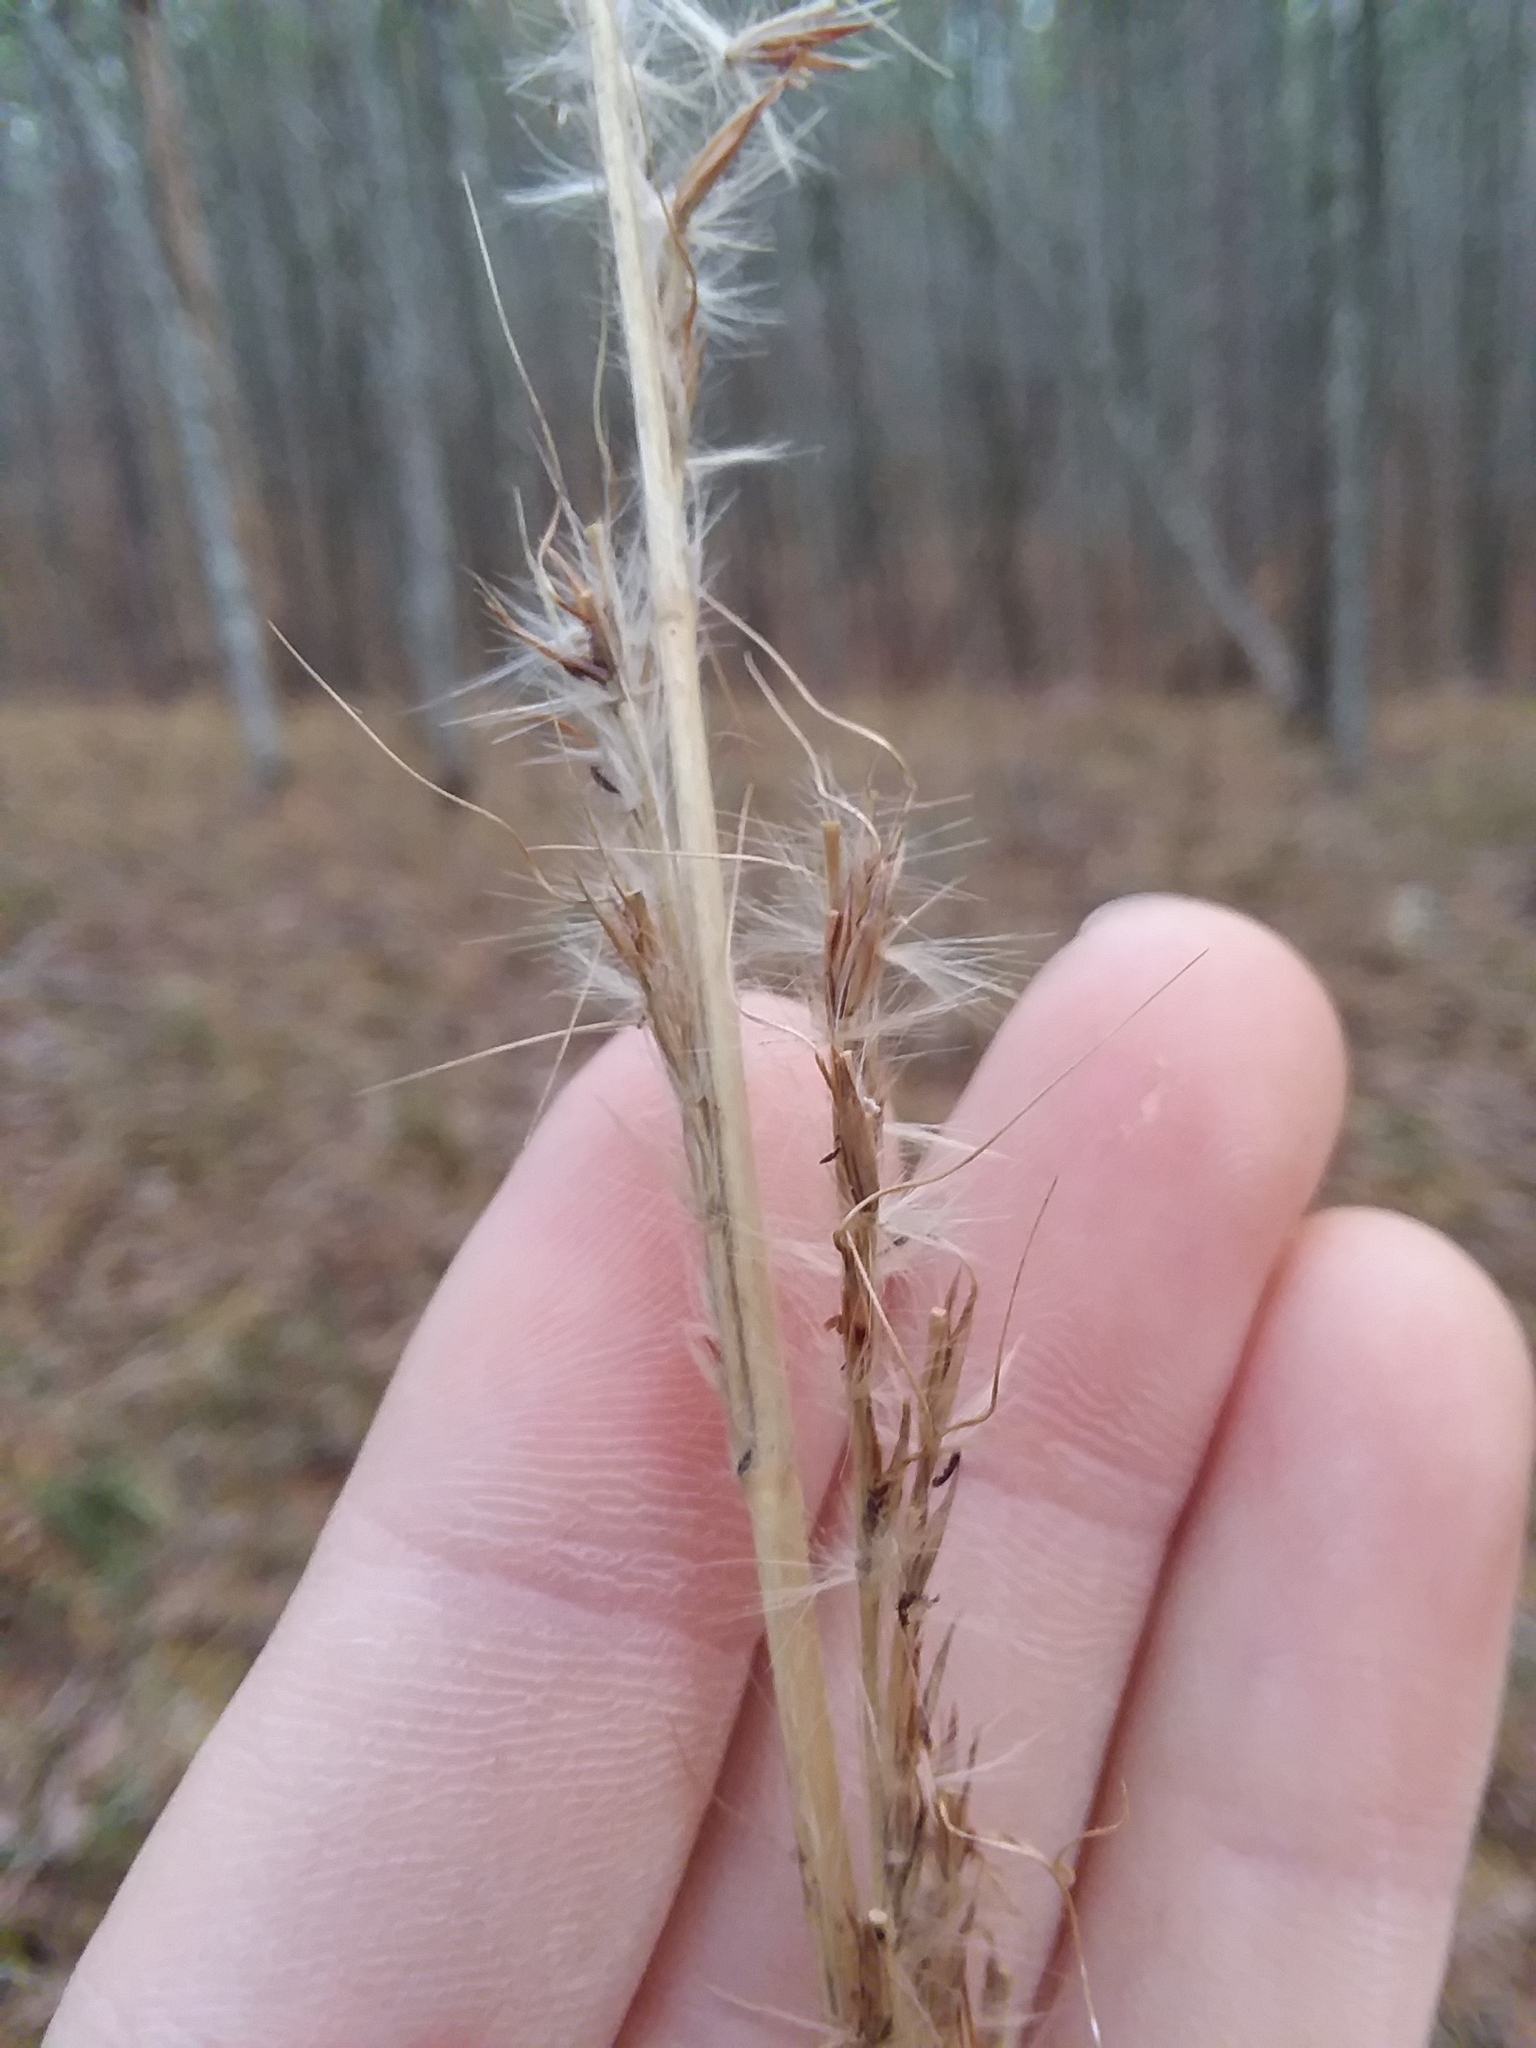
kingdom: Plantae
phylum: Tracheophyta
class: Liliopsida
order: Poales
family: Poaceae
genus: Erianthus
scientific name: Erianthus contortus
